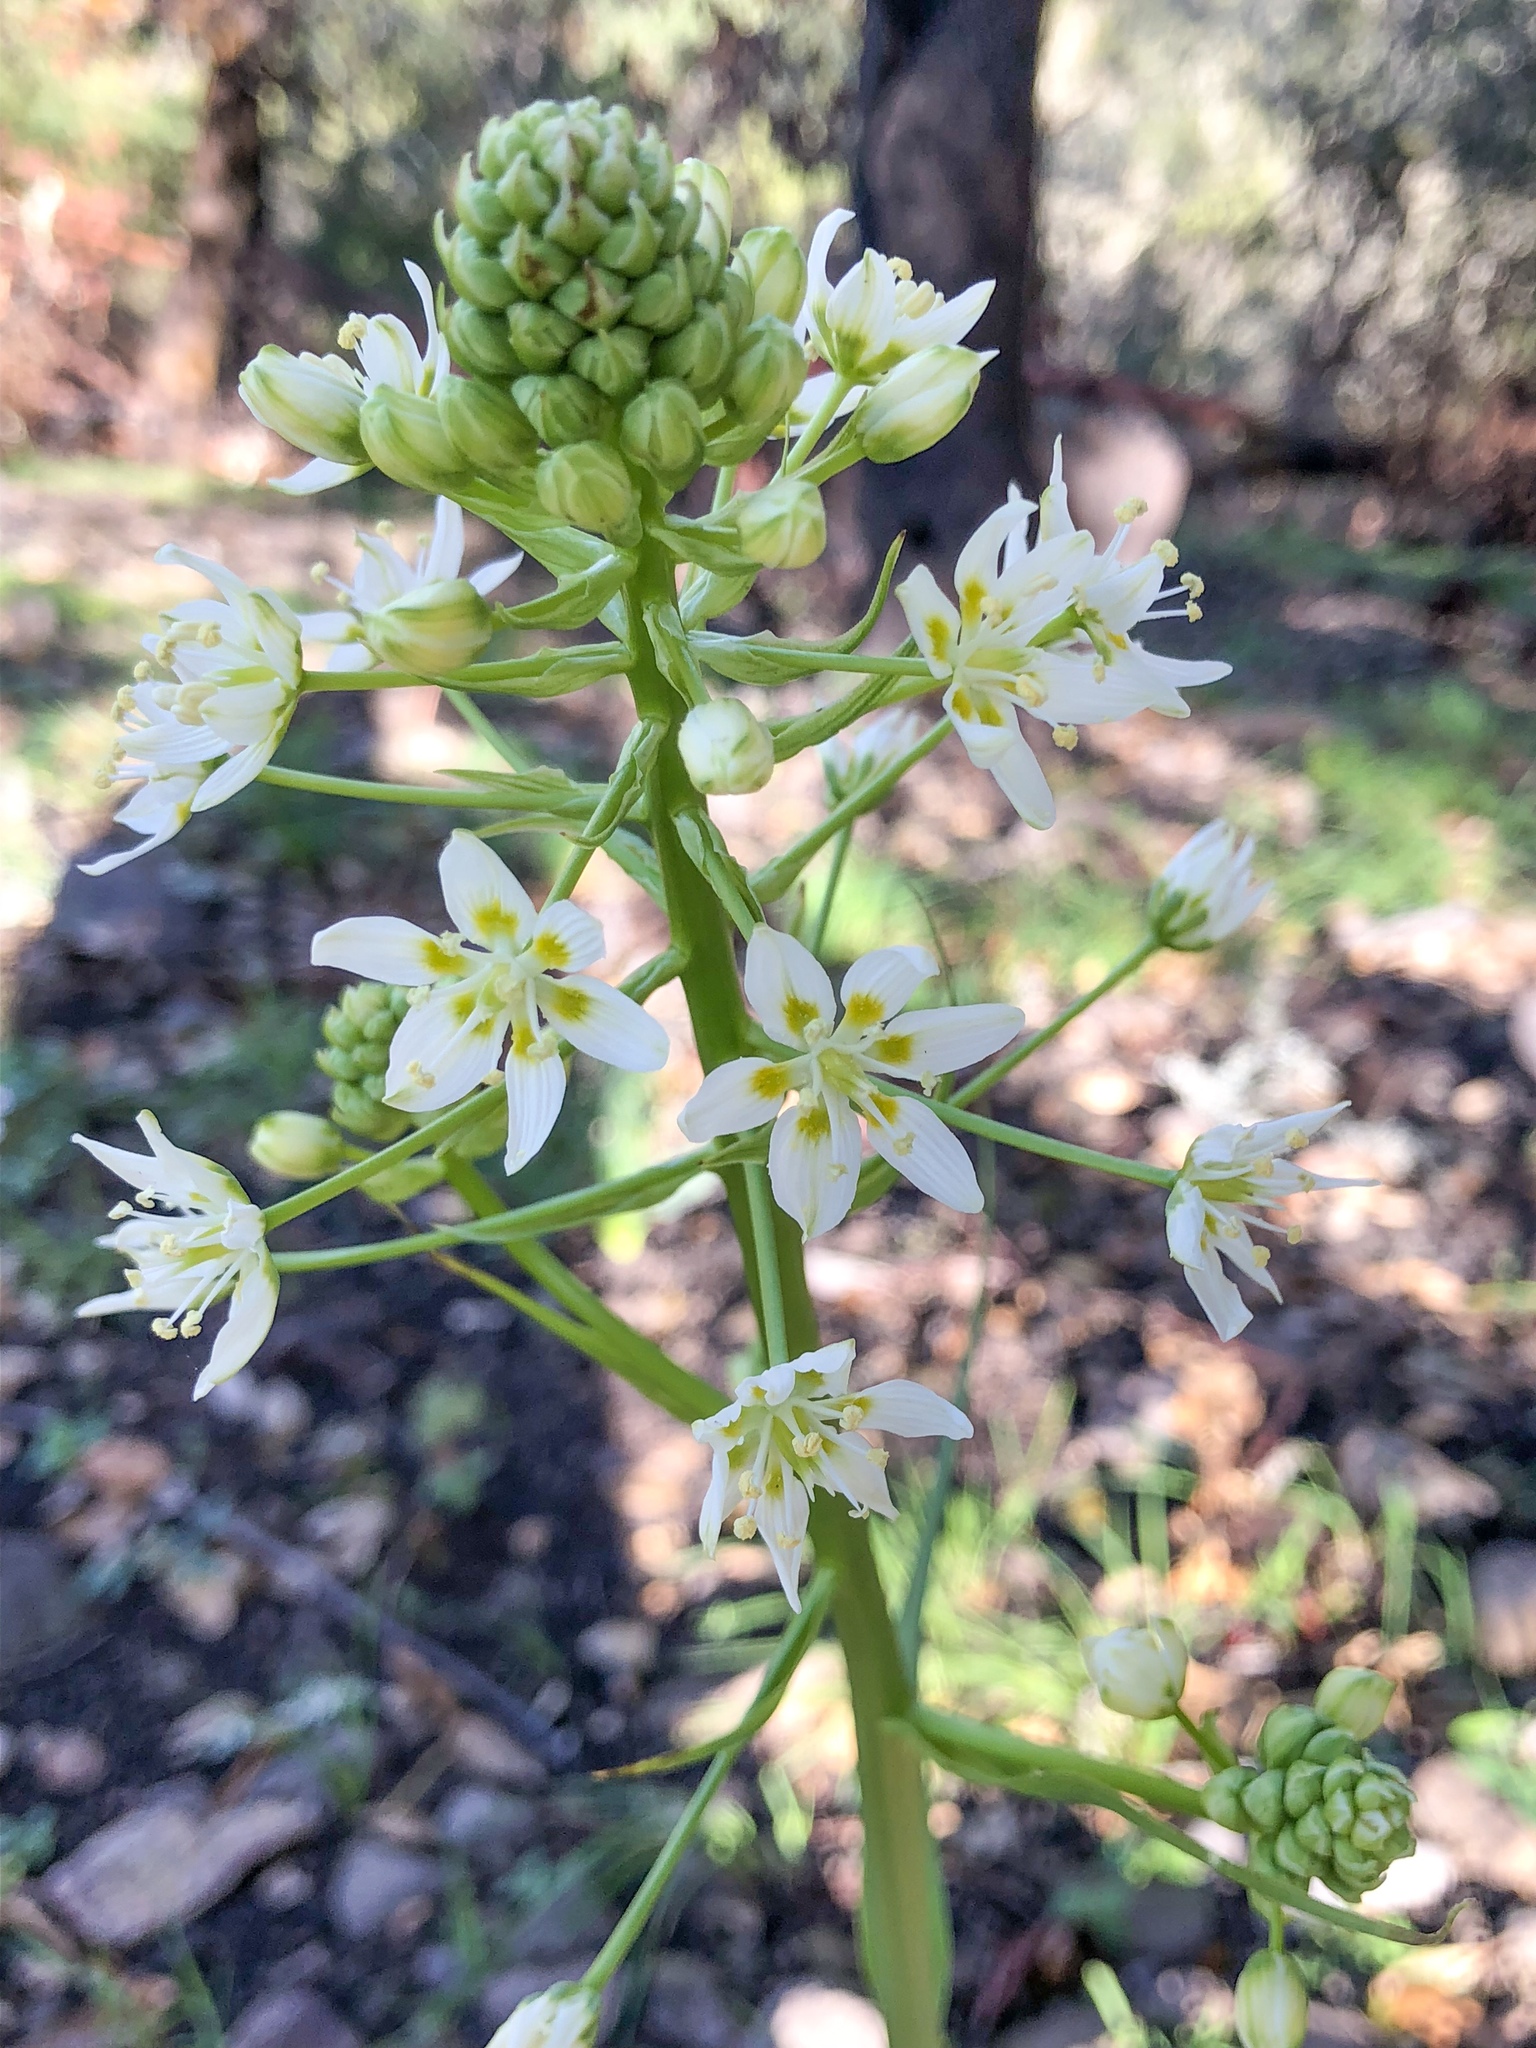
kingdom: Plantae
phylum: Tracheophyta
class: Liliopsida
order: Liliales
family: Melanthiaceae
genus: Toxicoscordion
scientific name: Toxicoscordion fremontii
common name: Fremont's death camas
